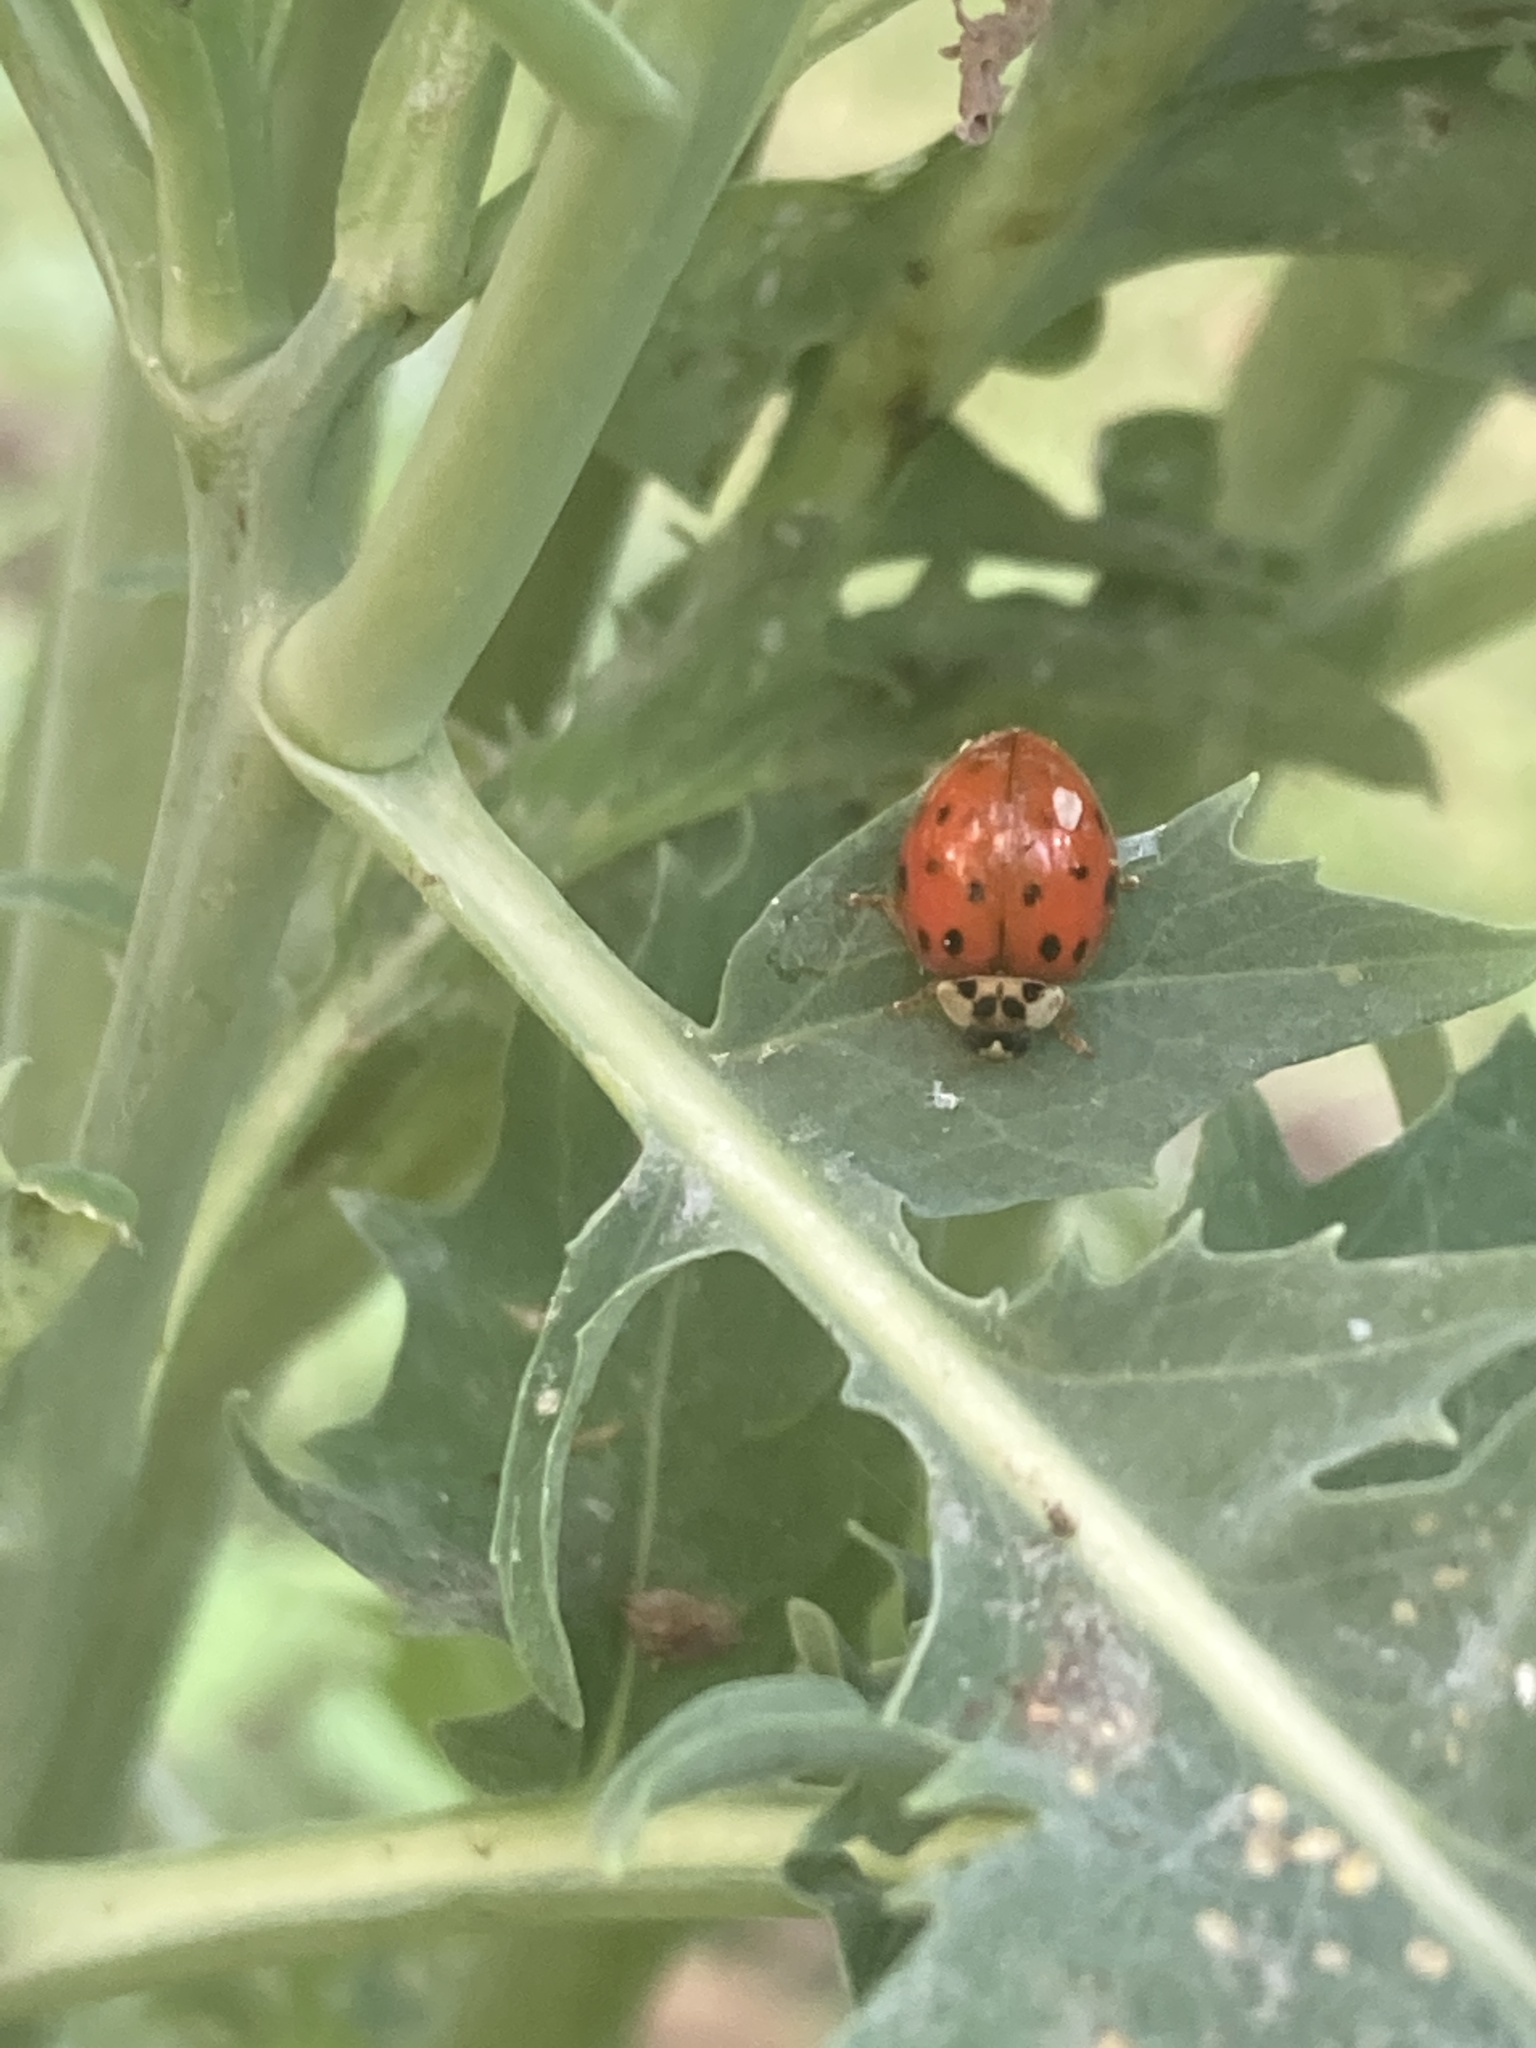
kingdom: Animalia
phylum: Arthropoda
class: Insecta
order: Coleoptera
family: Coccinellidae
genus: Harmonia
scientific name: Harmonia axyridis
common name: Harlequin ladybird
